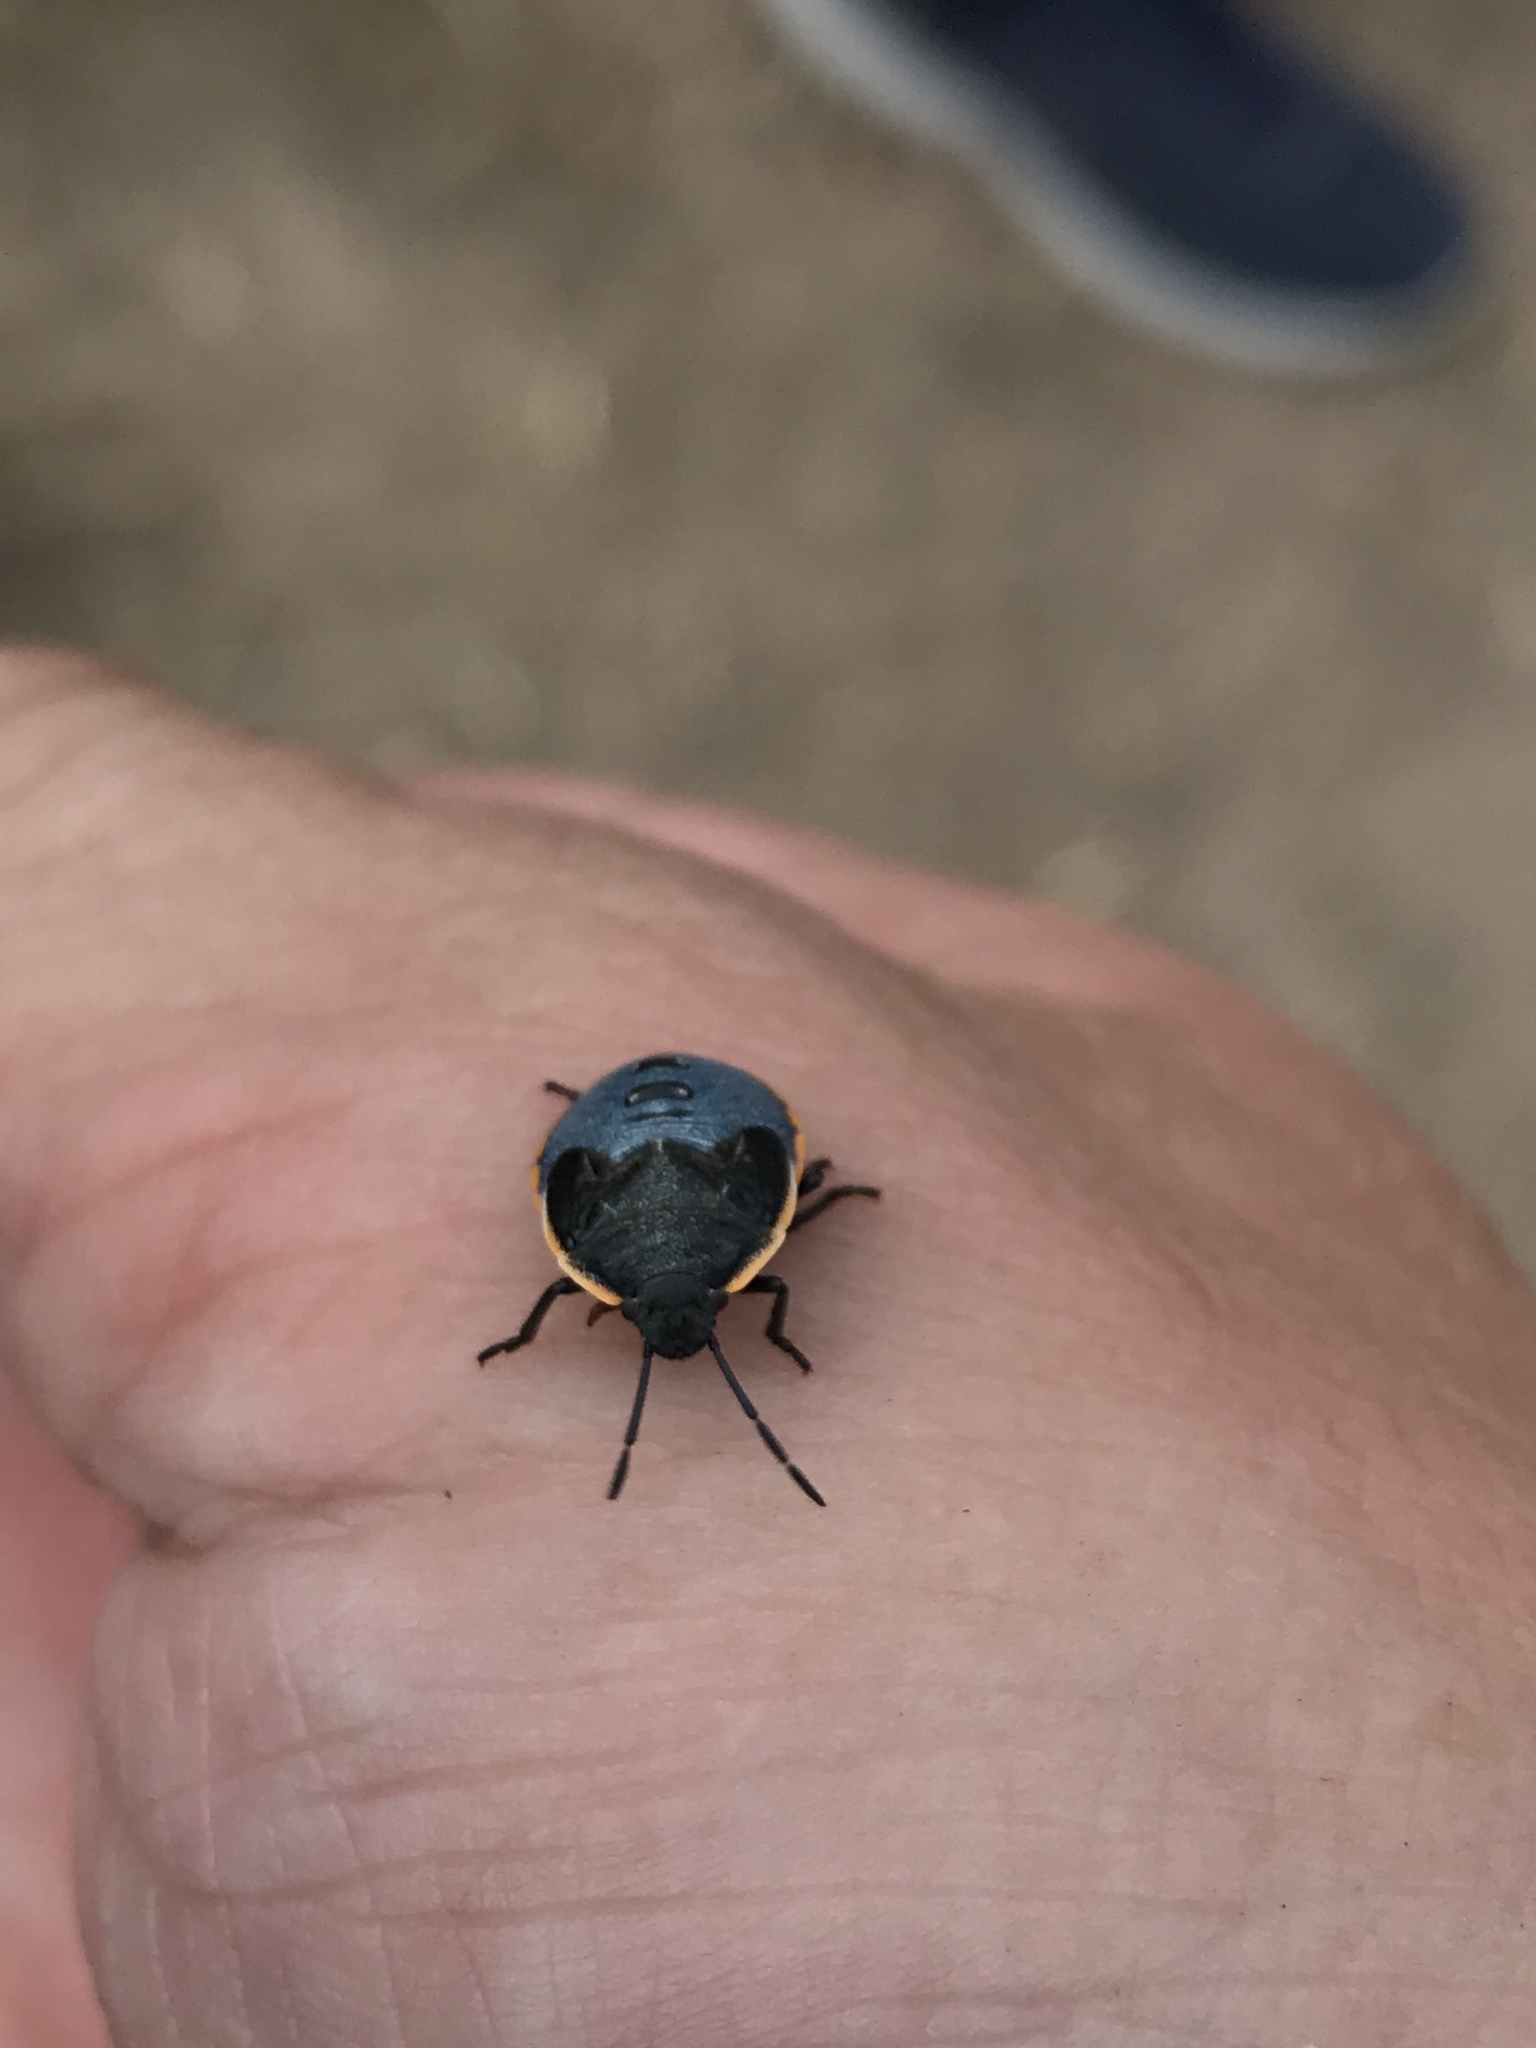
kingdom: Animalia
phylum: Arthropoda
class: Insecta
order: Hemiptera
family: Pentatomidae
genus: Chlorochroa
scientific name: Chlorochroa ligata
